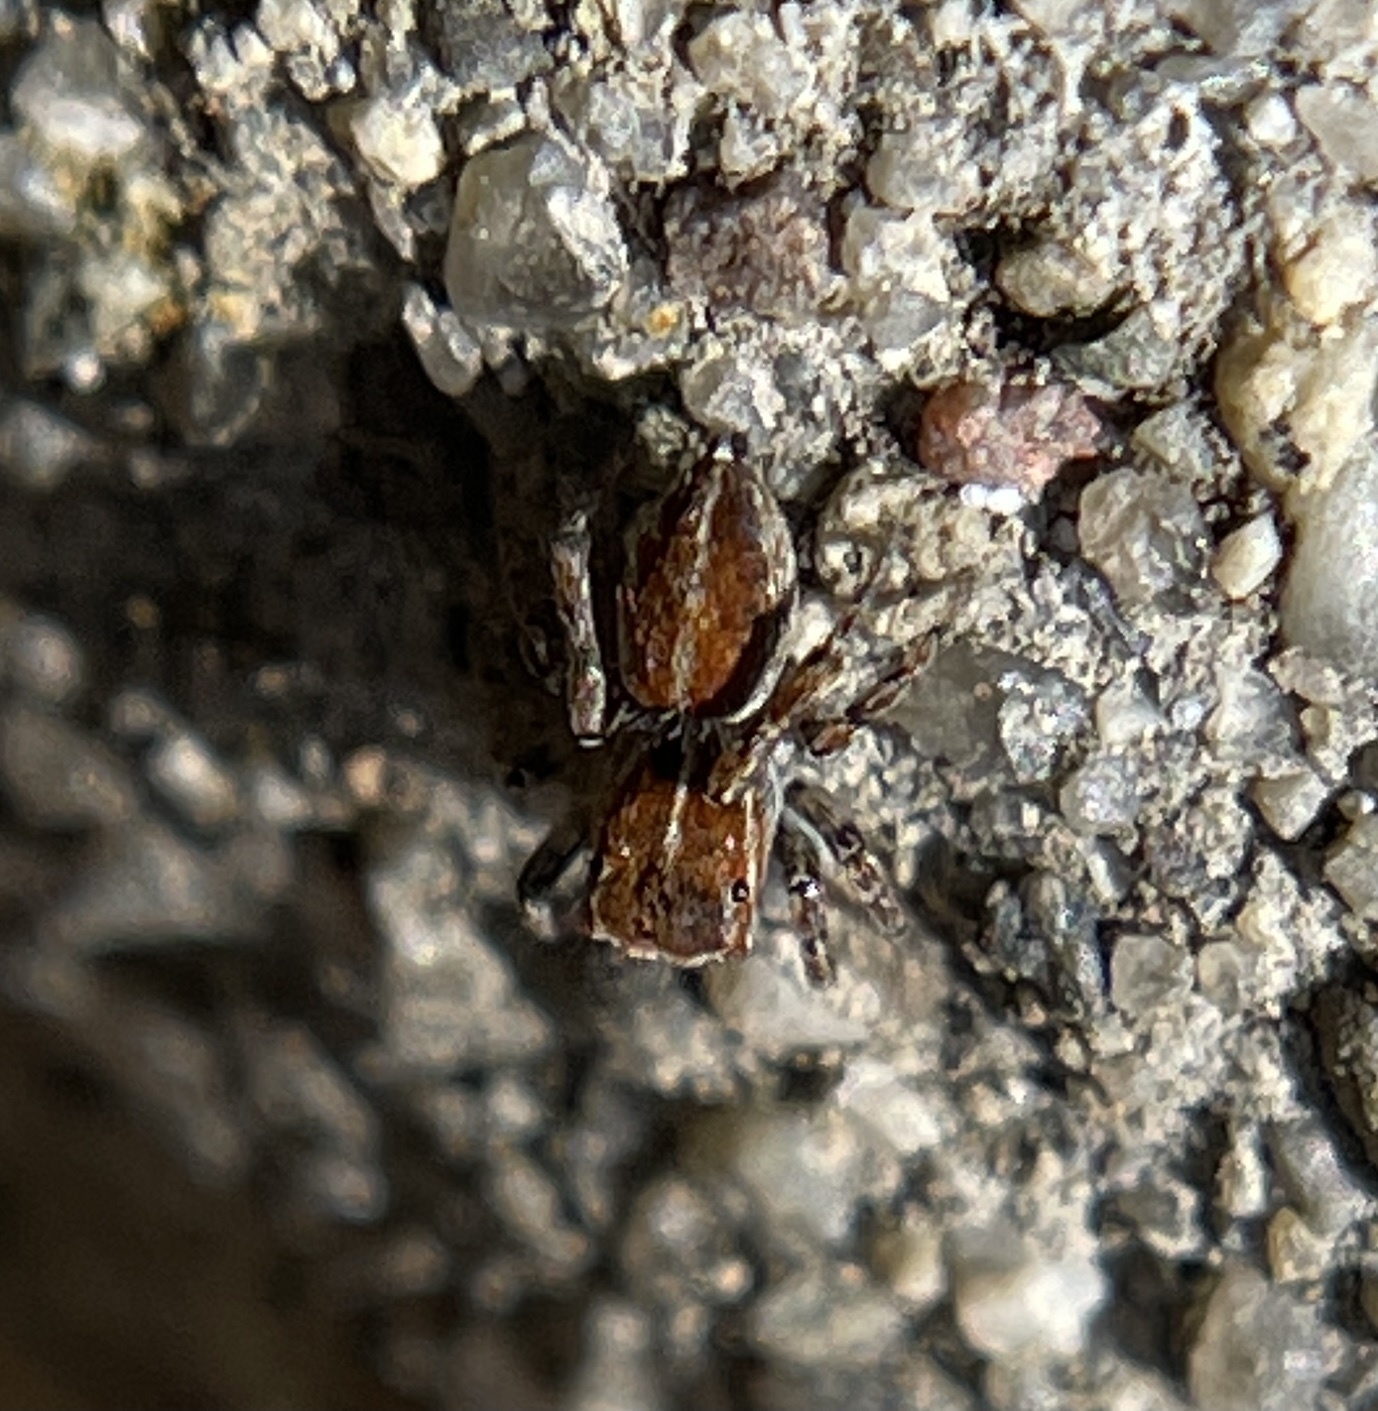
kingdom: Animalia
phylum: Arthropoda
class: Arachnida
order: Araneae
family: Salticidae
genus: Attinella
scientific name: Attinella dorsata
